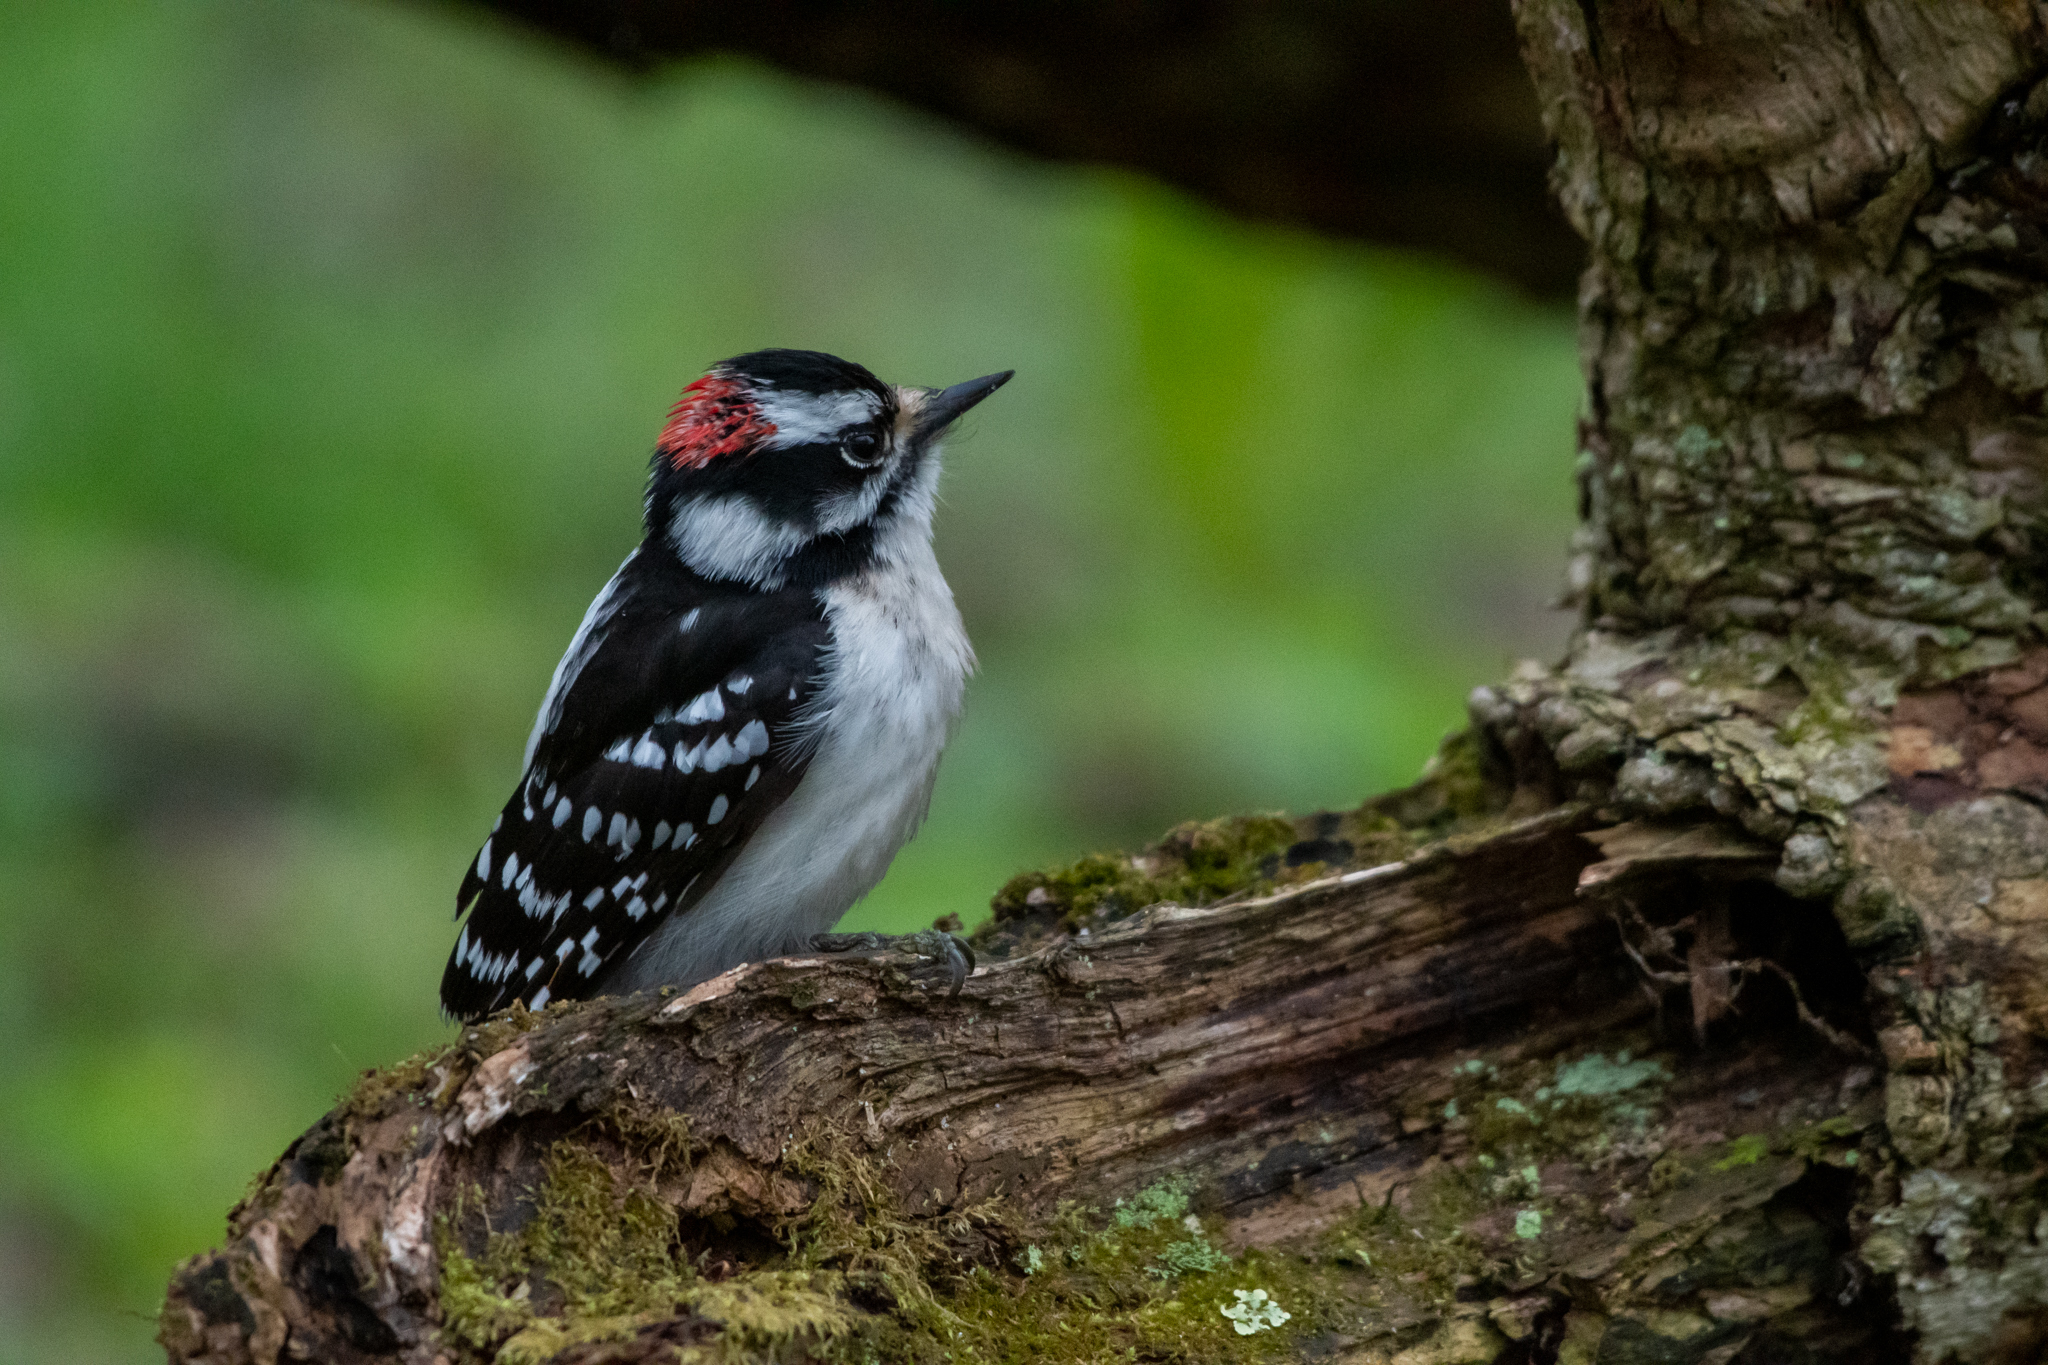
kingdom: Animalia
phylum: Chordata
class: Aves
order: Piciformes
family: Picidae
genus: Dryobates
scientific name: Dryobates pubescens
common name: Downy woodpecker
